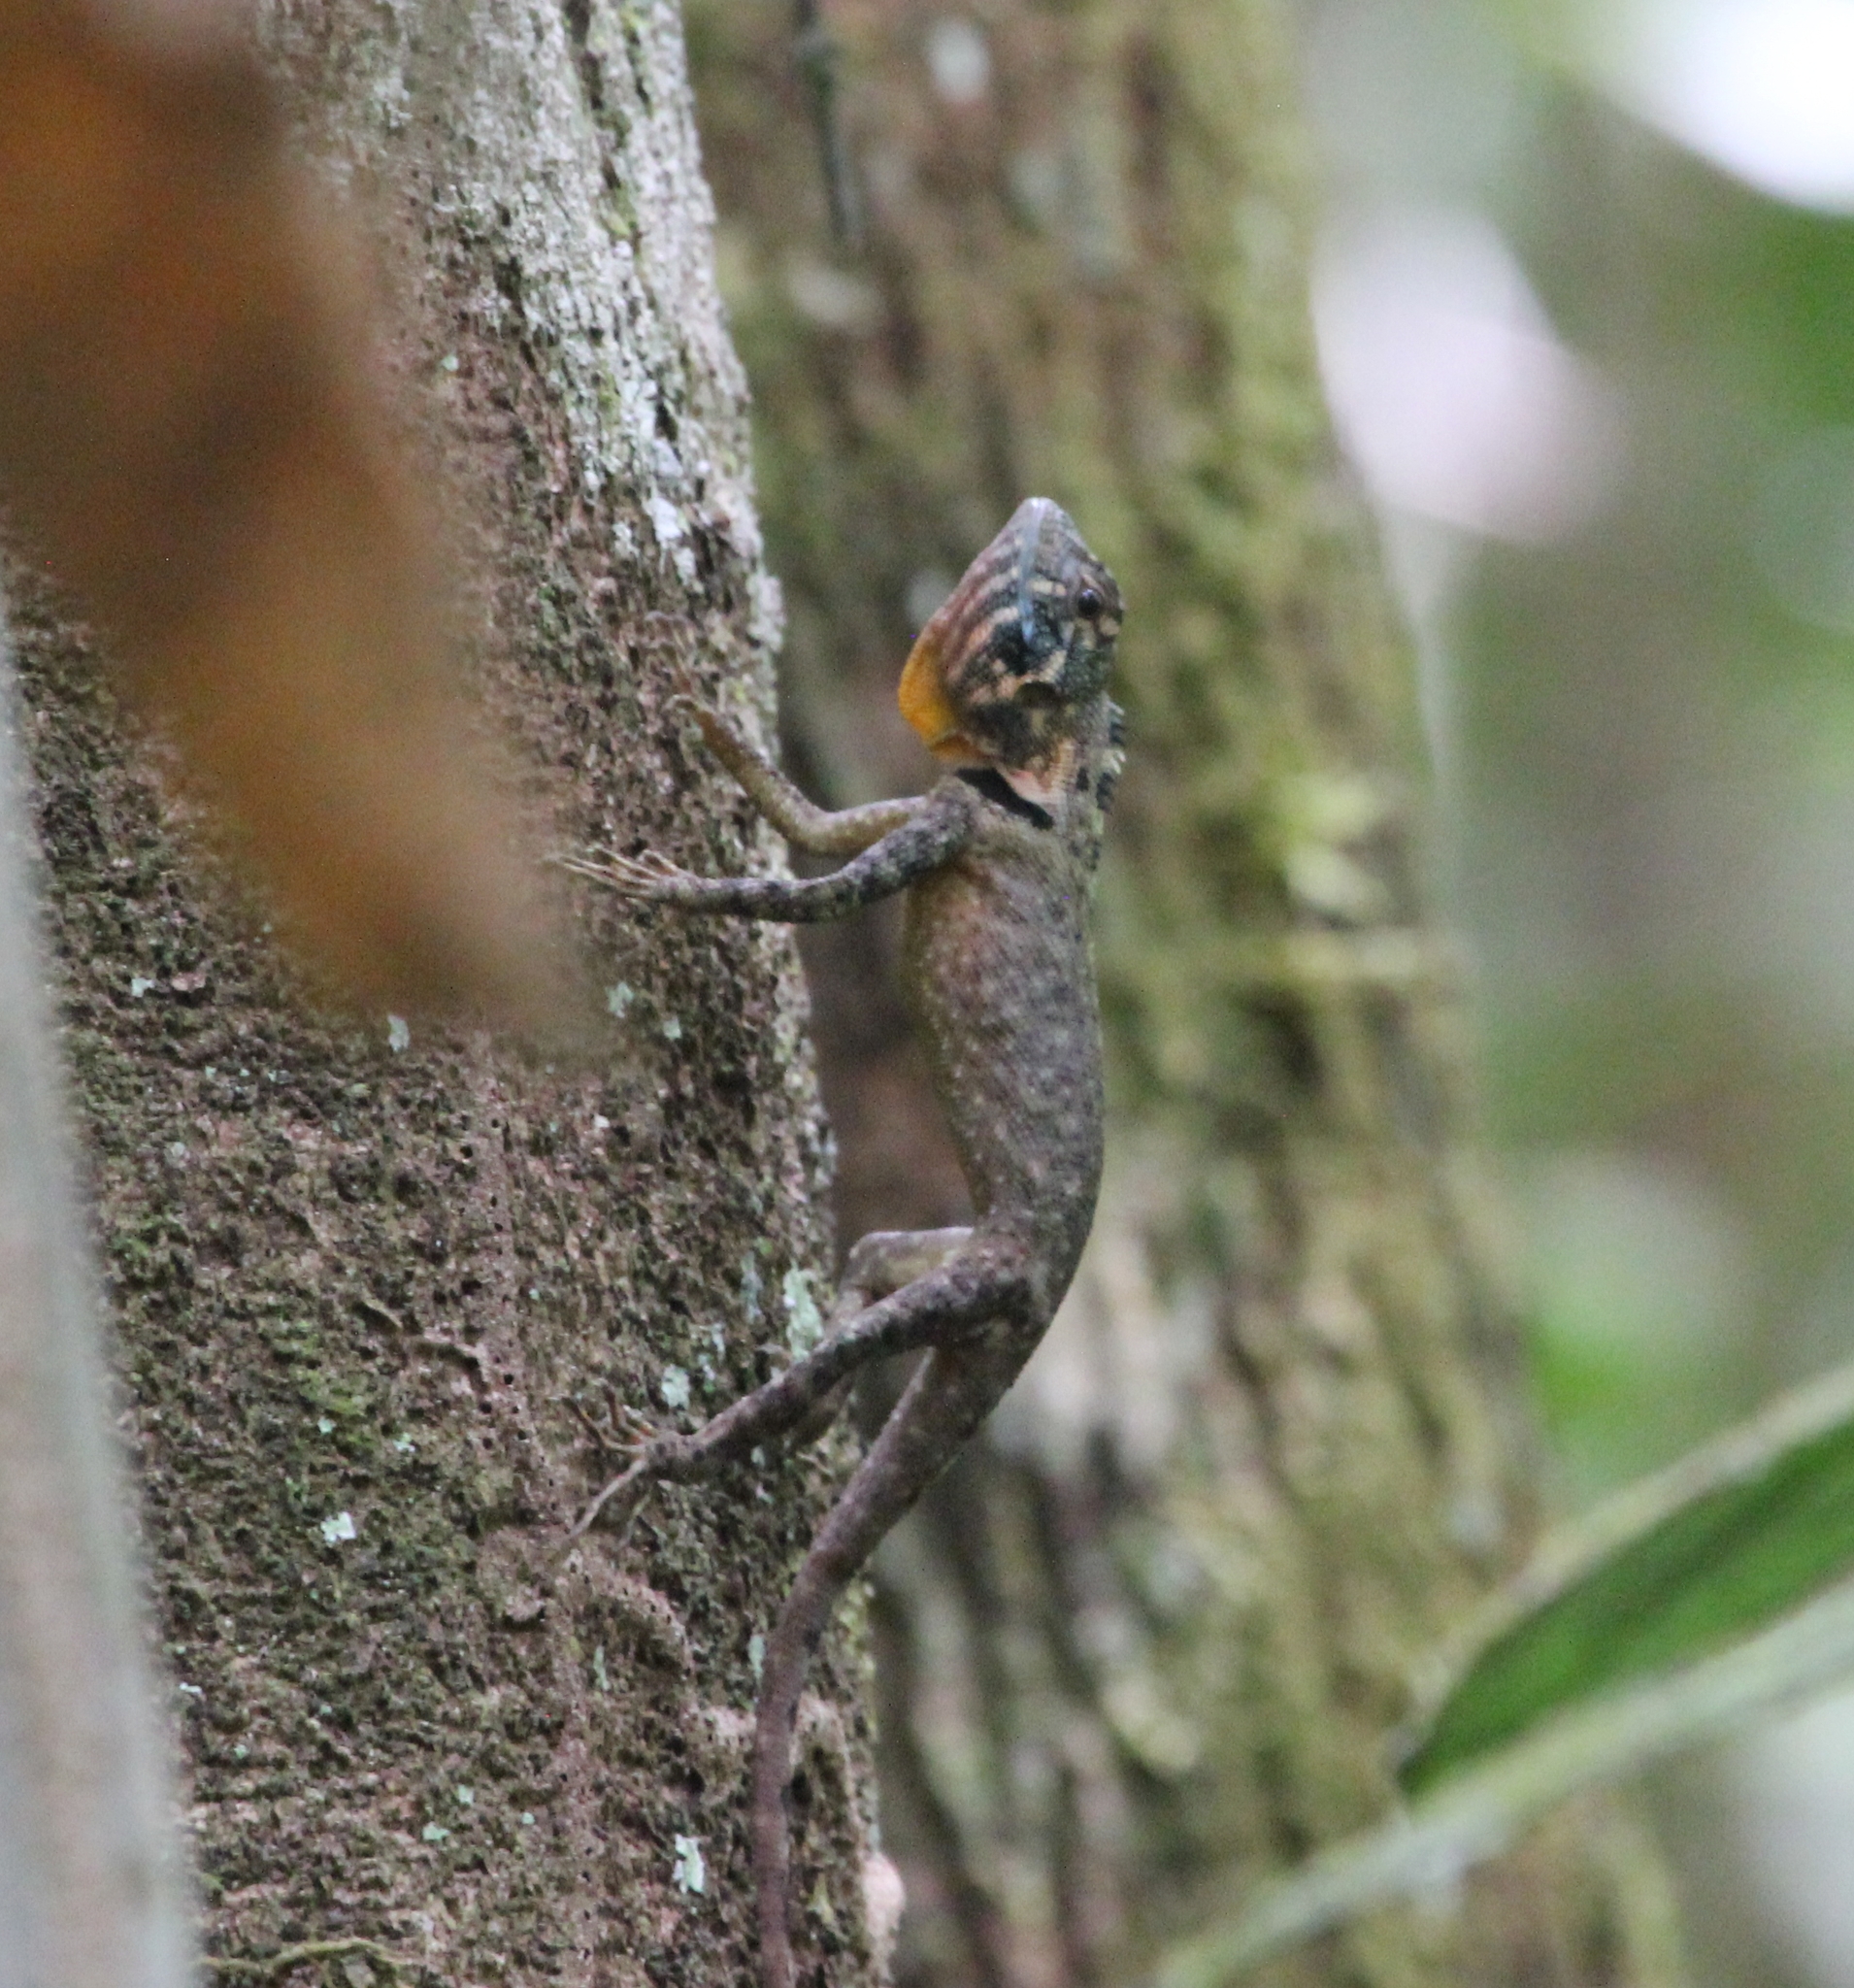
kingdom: Animalia
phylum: Chordata
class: Squamata
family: Tropiduridae
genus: Plica
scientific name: Plica umbra
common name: Harlequin racerunner
